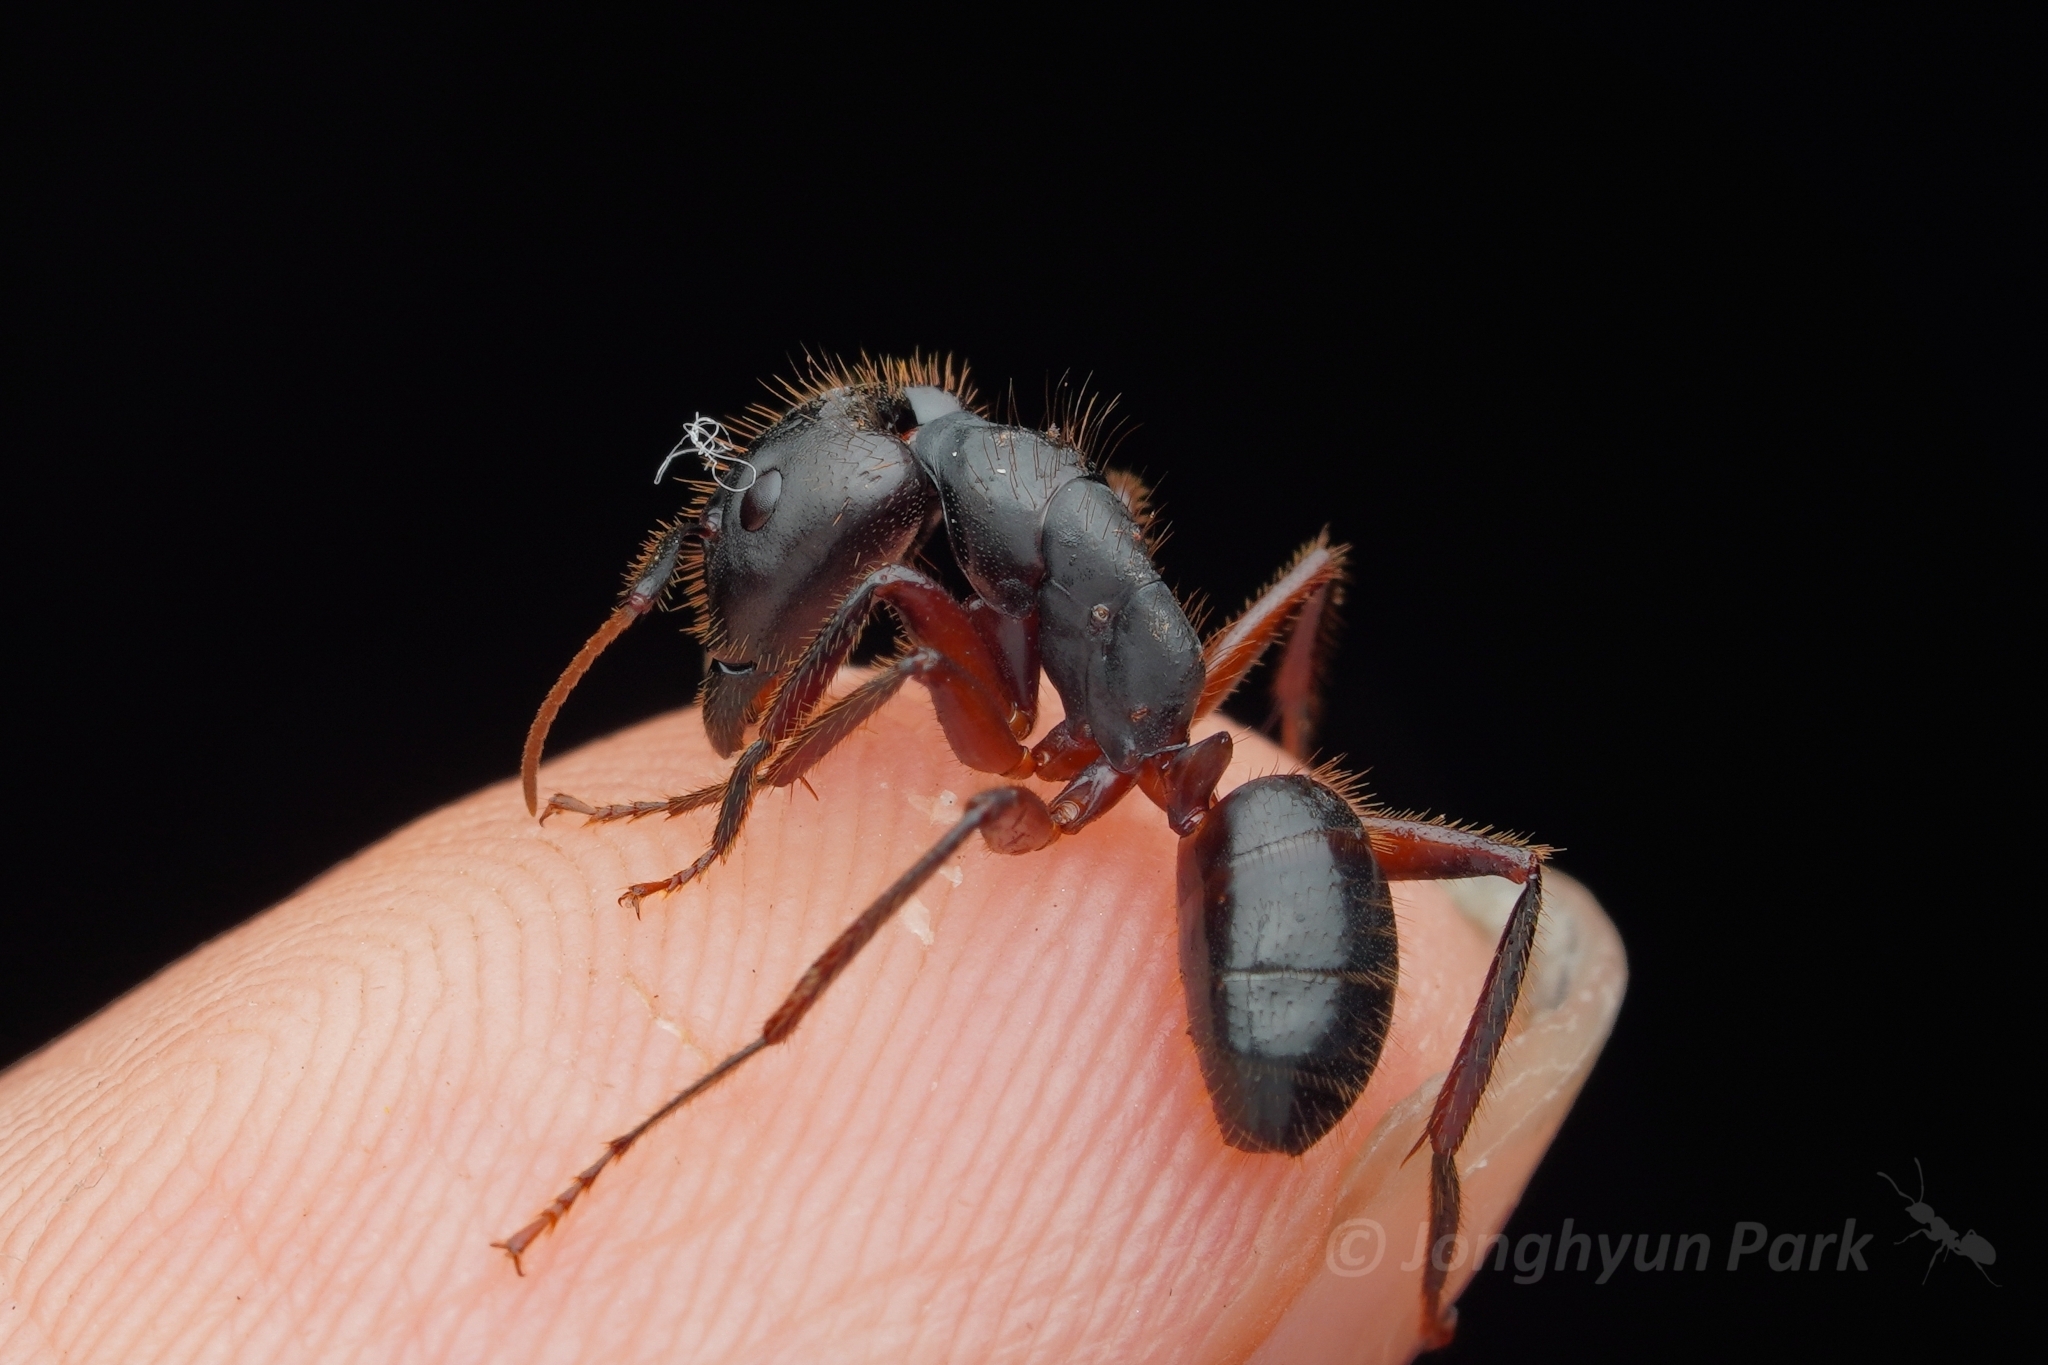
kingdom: Animalia
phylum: Arthropoda
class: Insecta
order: Hymenoptera
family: Formicidae
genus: Camponotus
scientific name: Camponotus rufifemur
